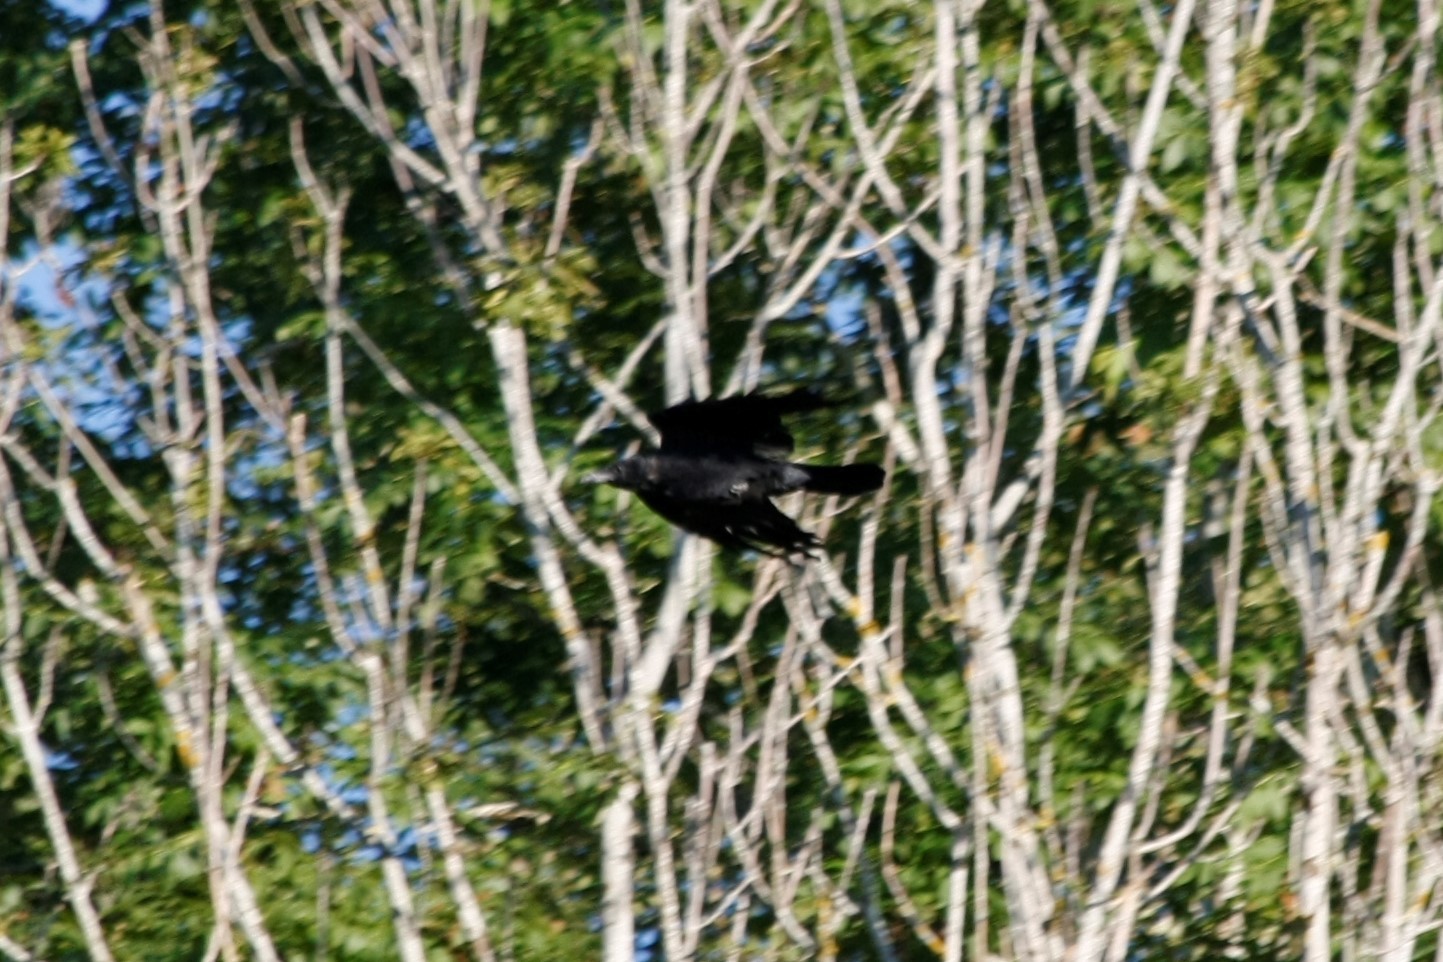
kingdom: Animalia
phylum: Chordata
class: Aves
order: Passeriformes
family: Corvidae
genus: Corvus
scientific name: Corvus corone
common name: Carrion crow
